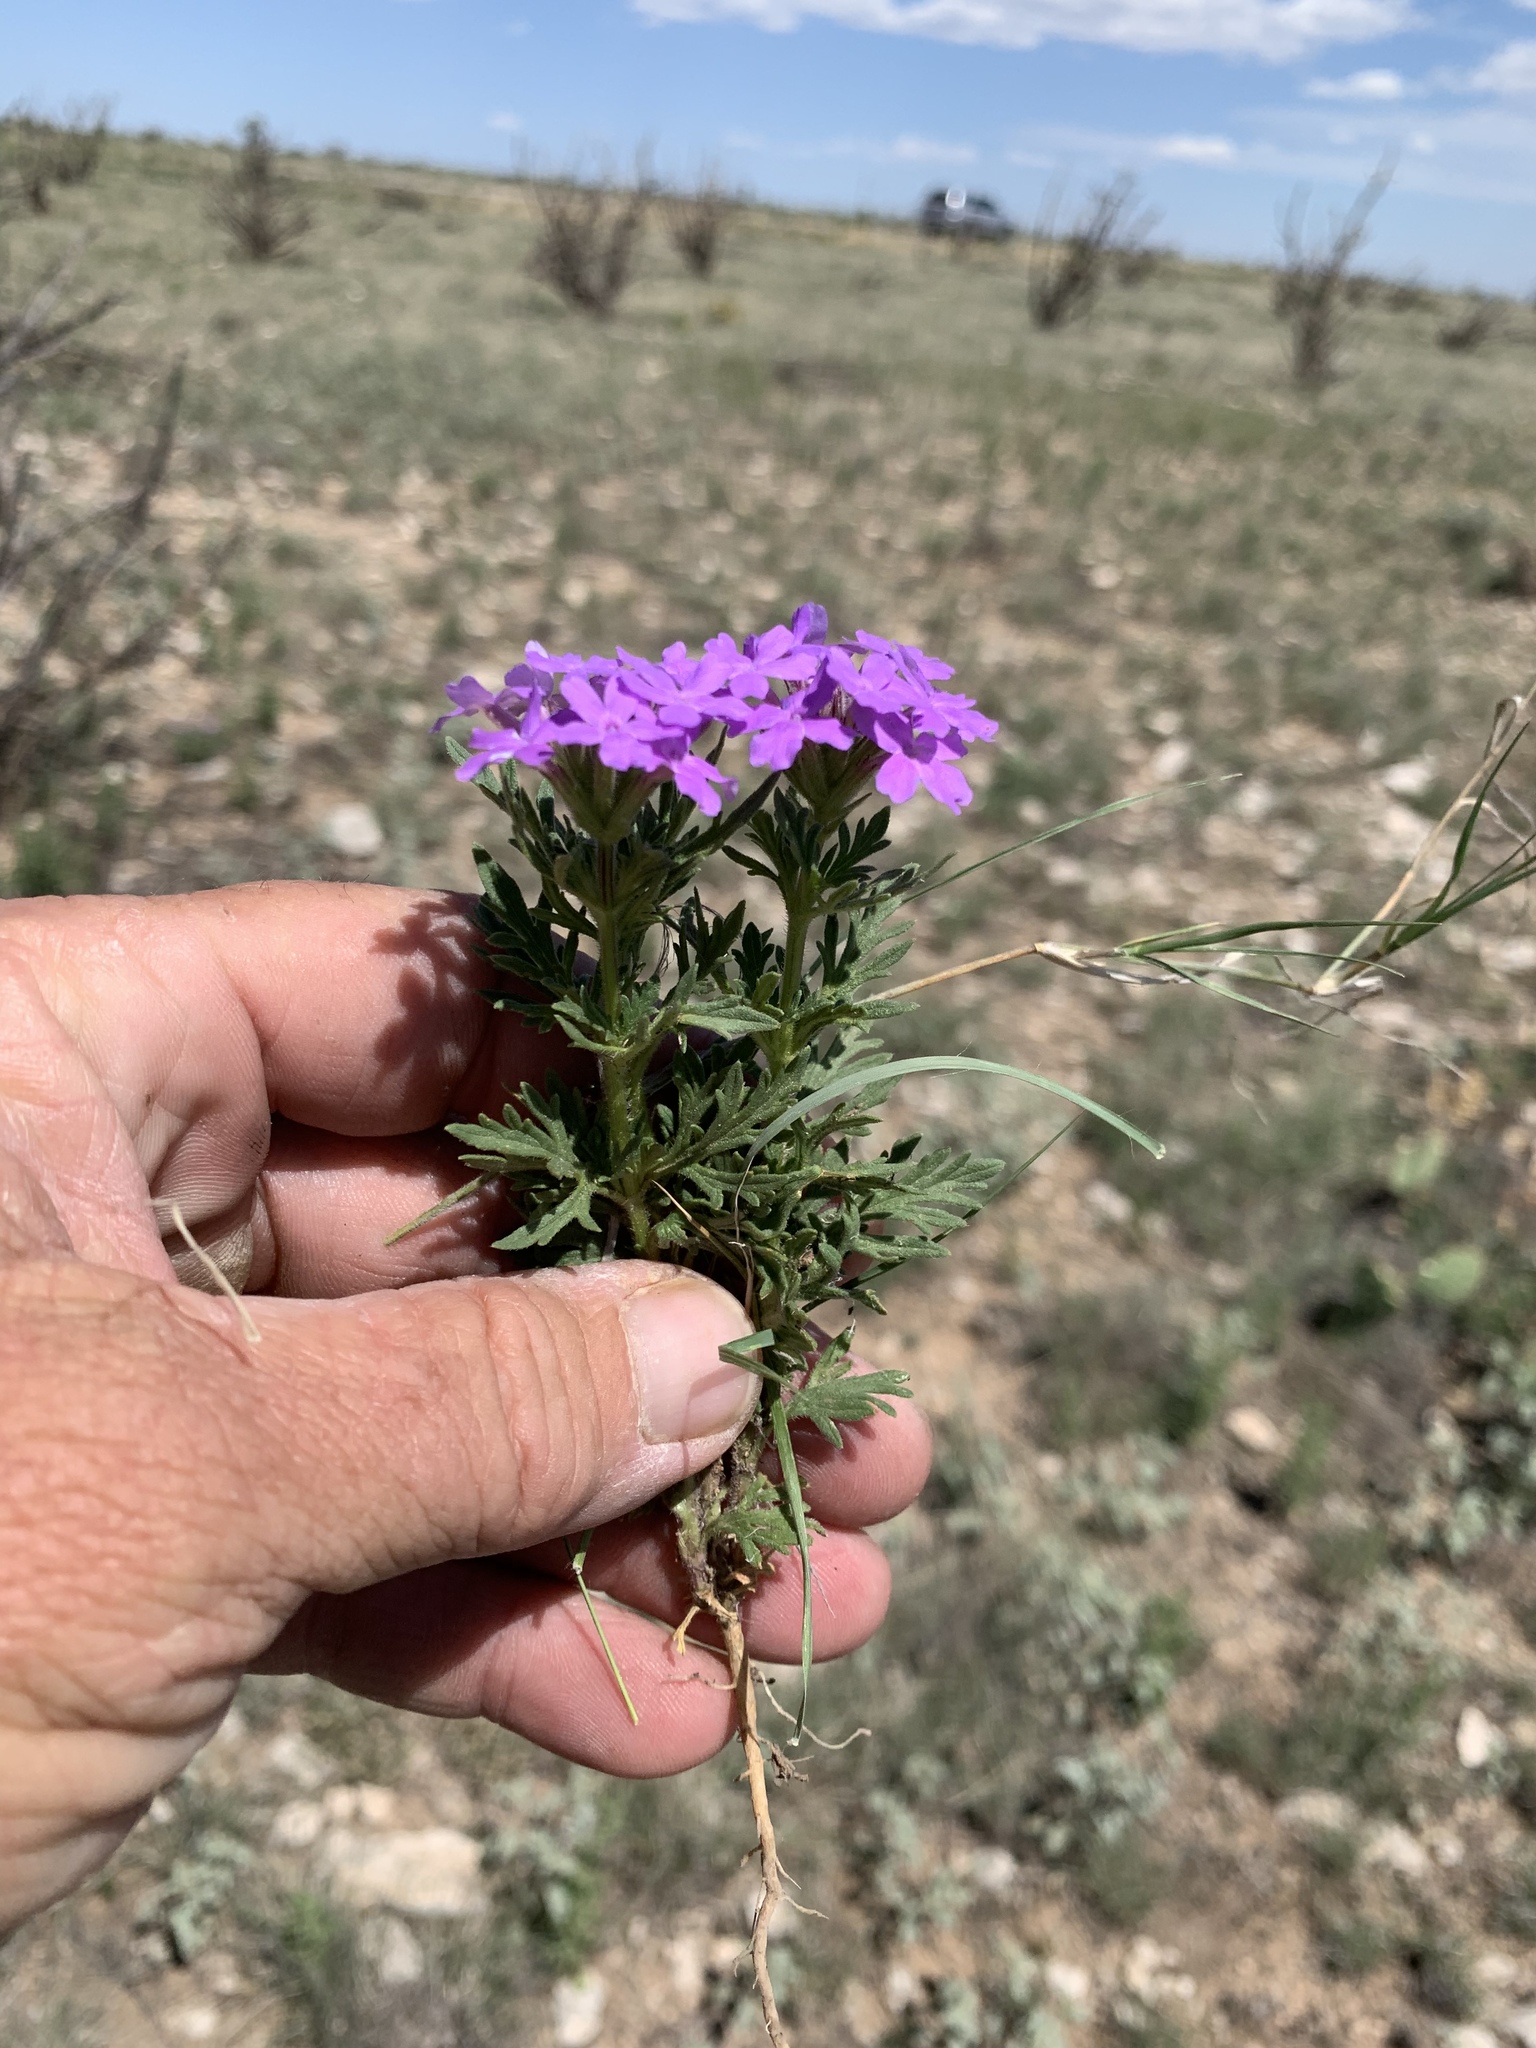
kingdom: Plantae
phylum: Tracheophyta
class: Magnoliopsida
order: Lamiales
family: Verbenaceae
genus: Verbena
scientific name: Verbena bipinnatifida
